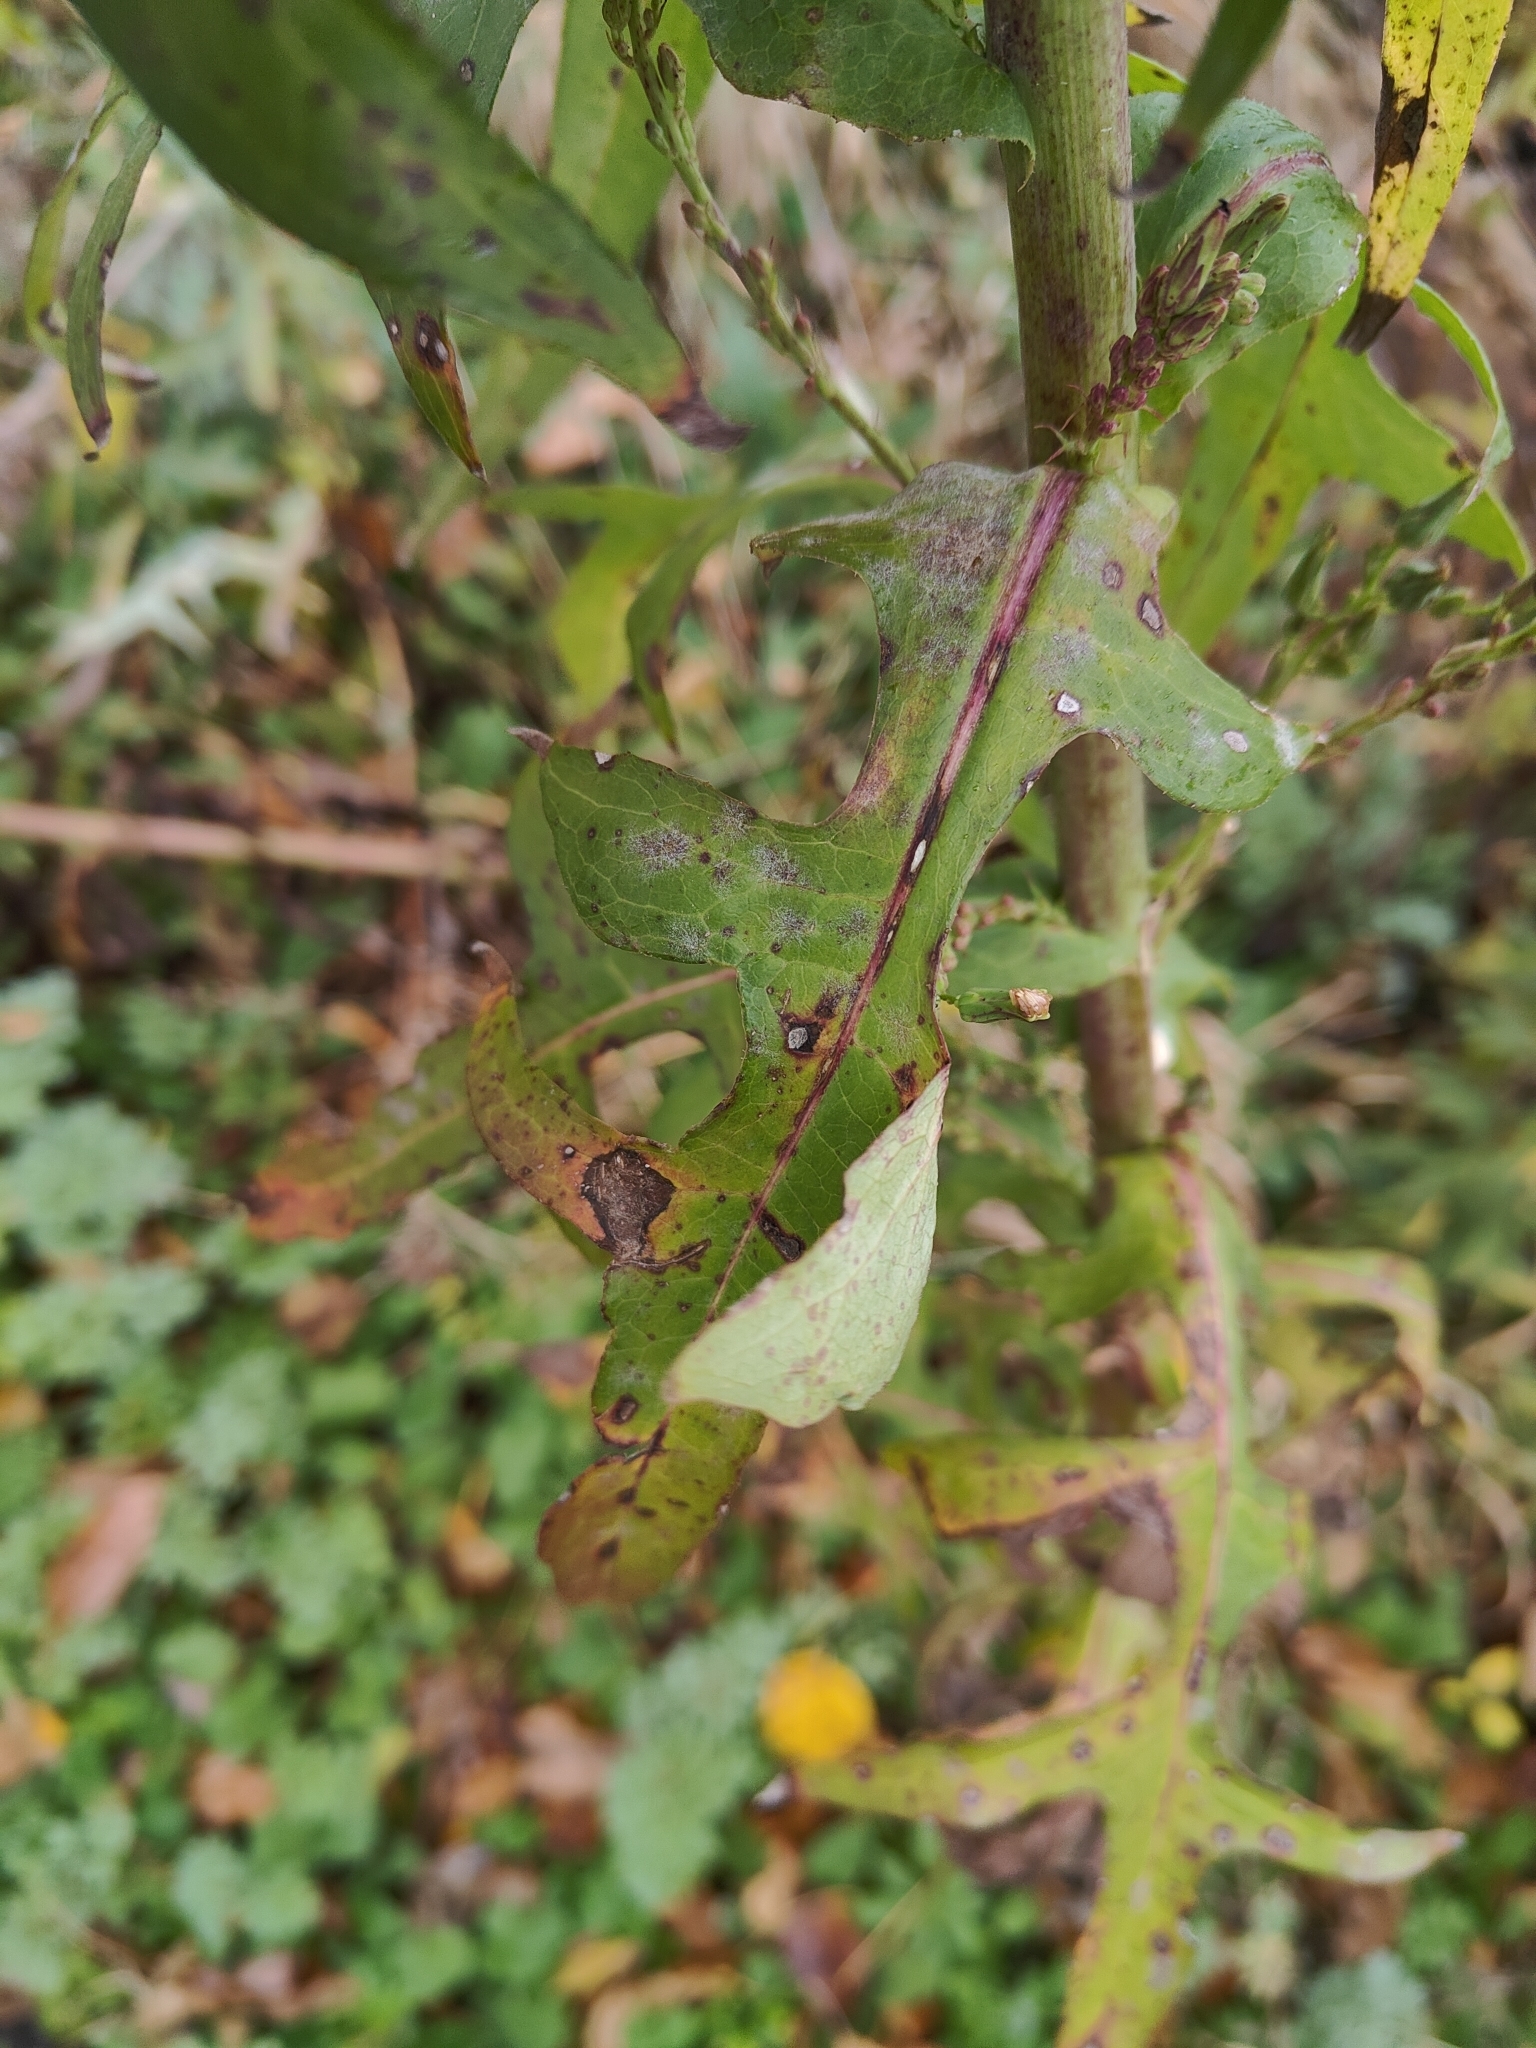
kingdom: Plantae
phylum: Tracheophyta
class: Magnoliopsida
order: Asterales
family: Asteraceae
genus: Lactuca
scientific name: Lactuca canadensis
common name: Canada lettuce
